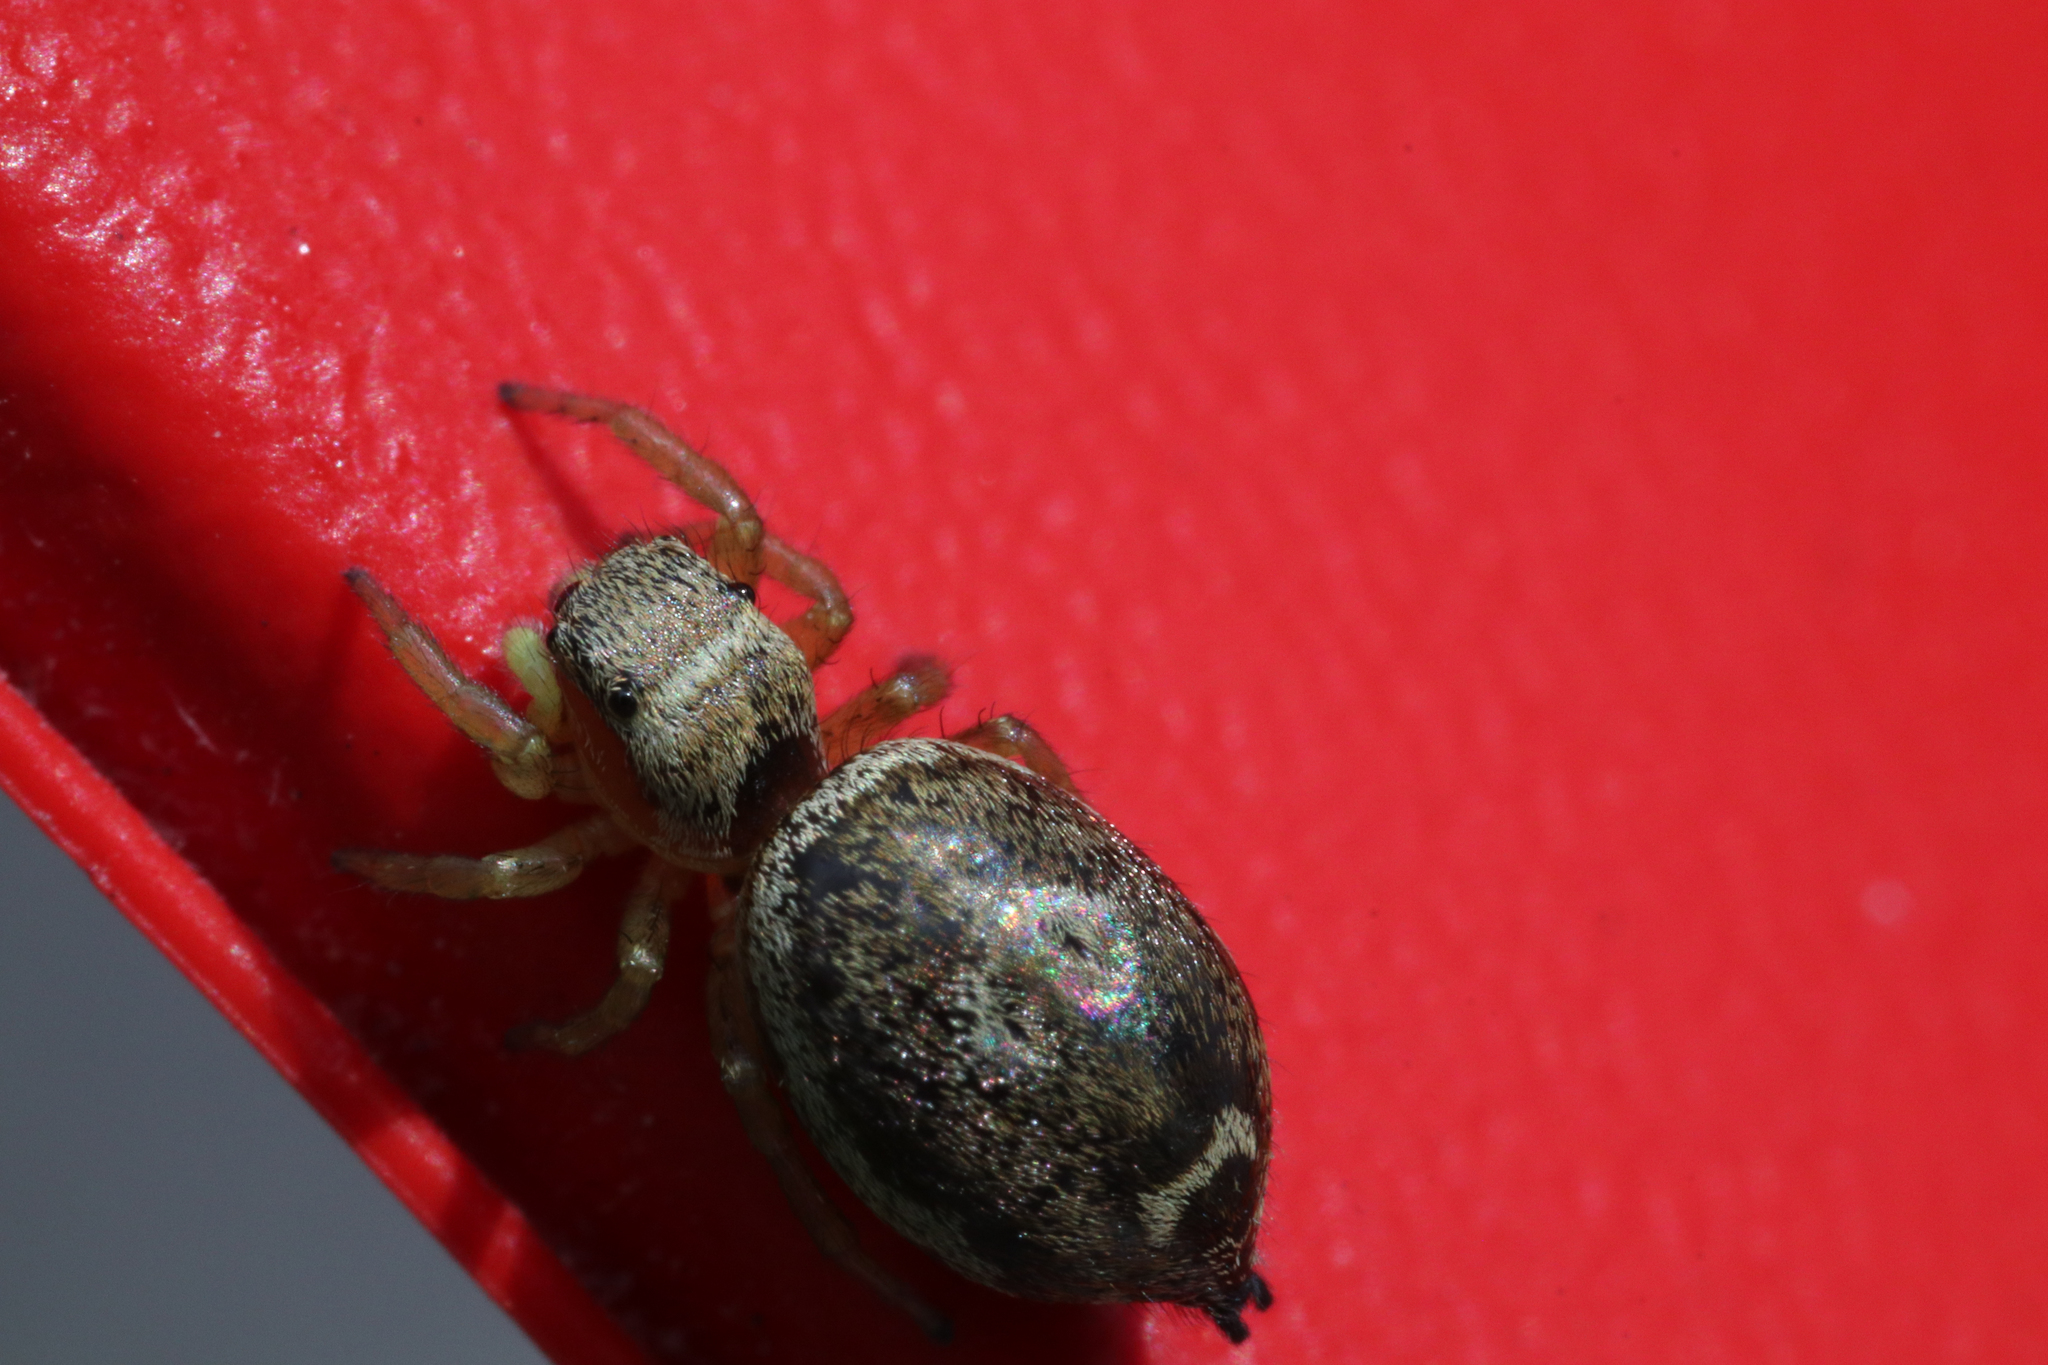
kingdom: Animalia
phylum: Arthropoda
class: Arachnida
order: Araneae
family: Salticidae
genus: Heliophanus
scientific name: Heliophanus tribulosus
